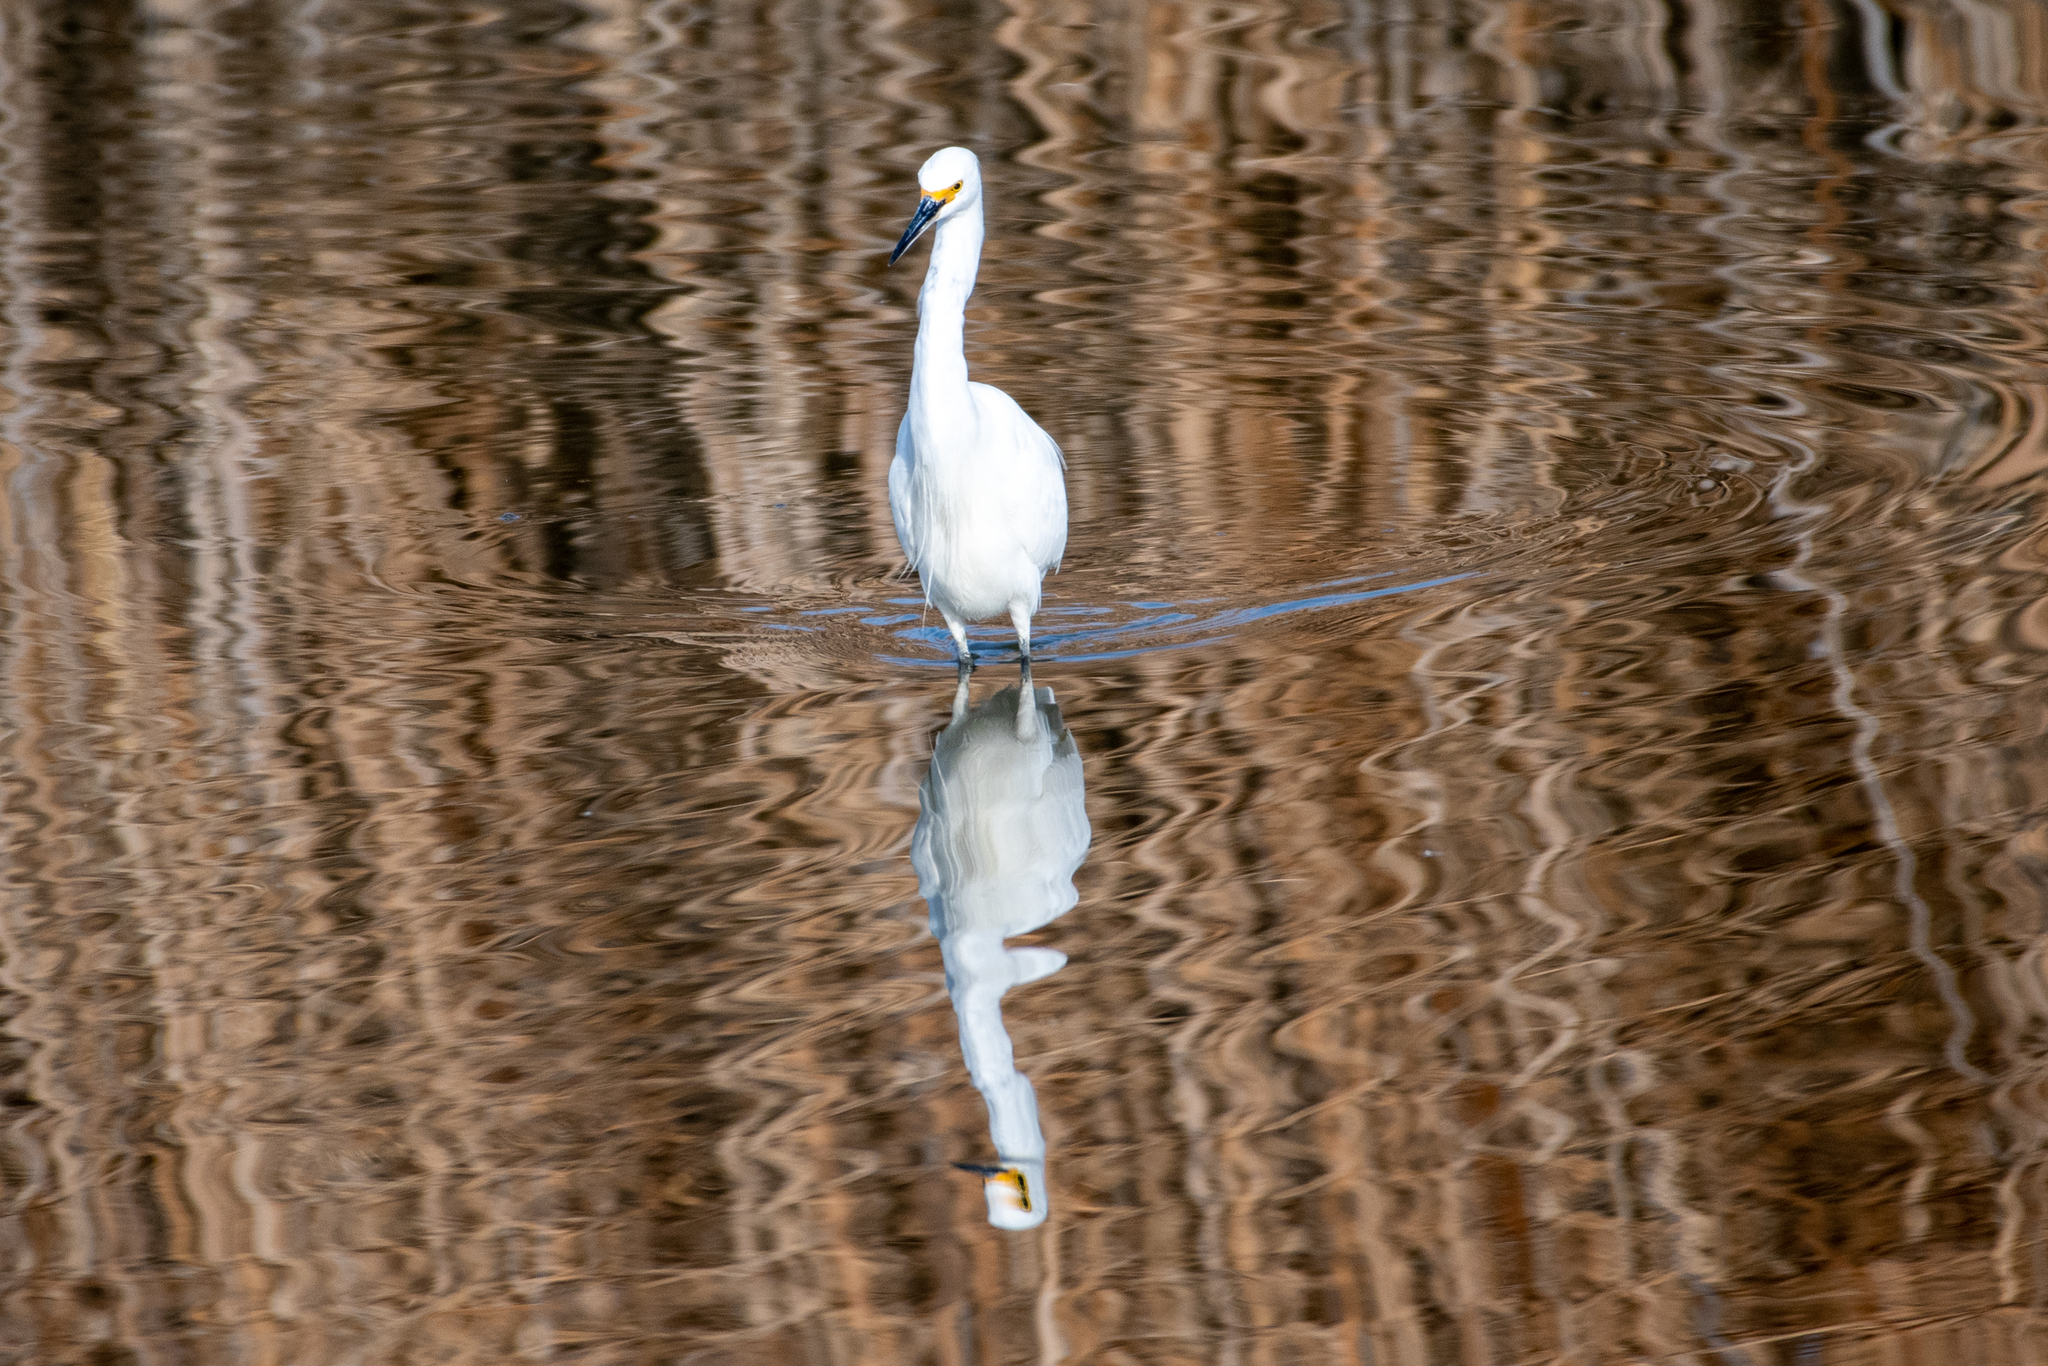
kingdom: Animalia
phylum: Chordata
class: Aves
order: Pelecaniformes
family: Ardeidae
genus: Egretta
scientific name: Egretta thula
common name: Snowy egret
